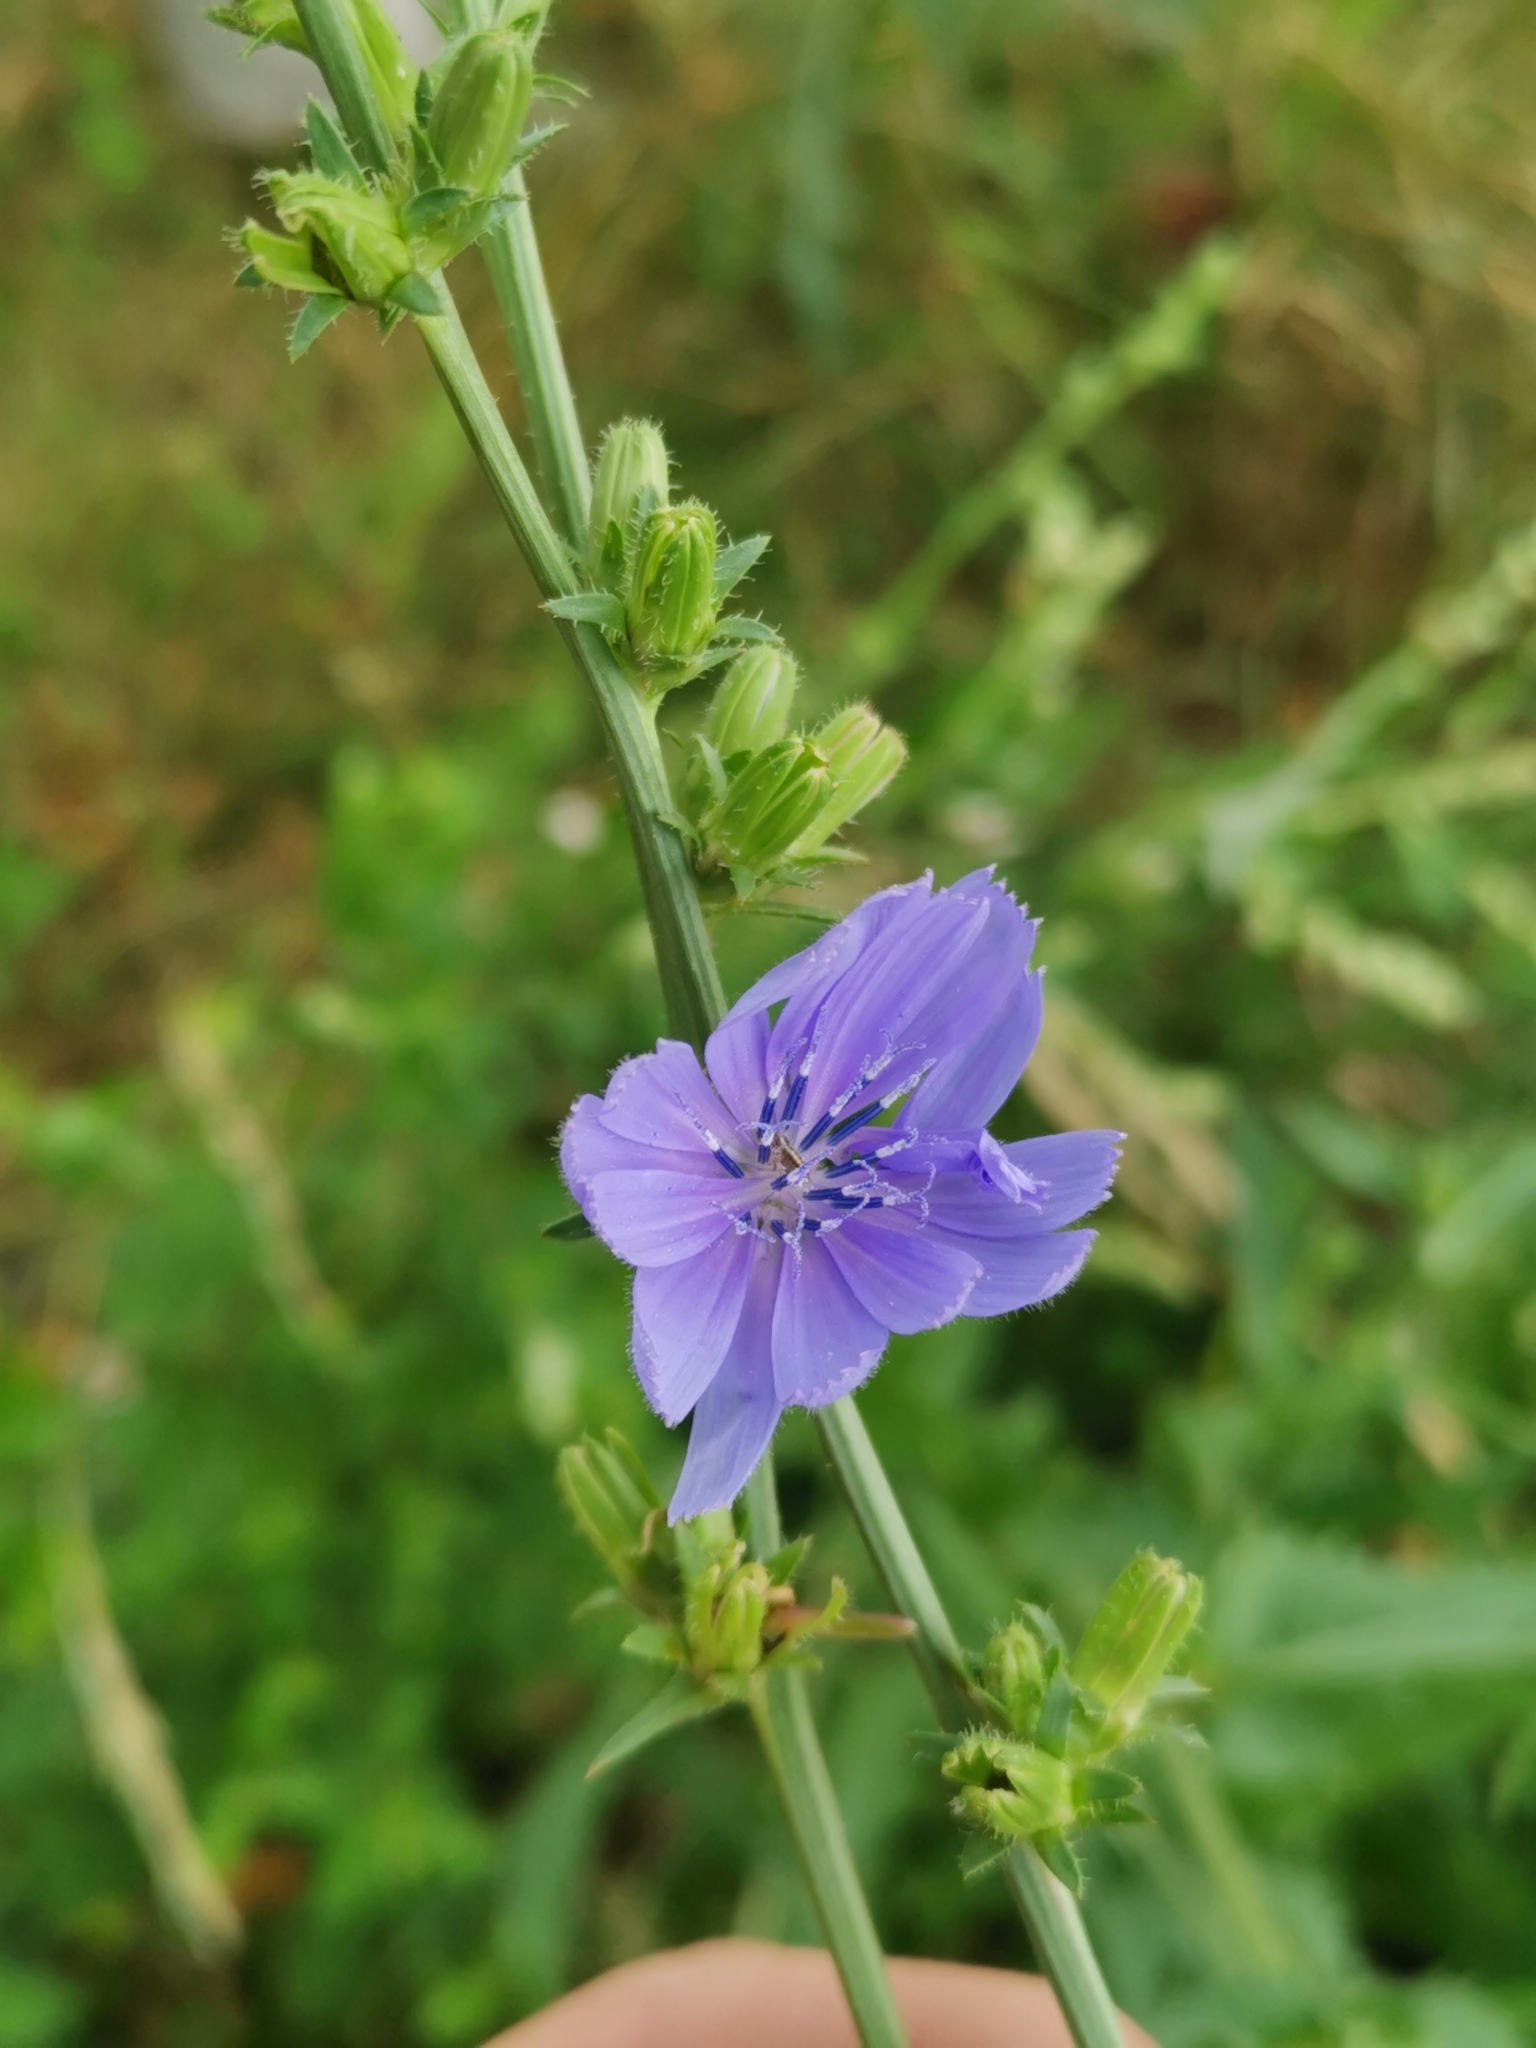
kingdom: Plantae
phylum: Tracheophyta
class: Magnoliopsida
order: Asterales
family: Asteraceae
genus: Cichorium
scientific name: Cichorium intybus
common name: Chicory
